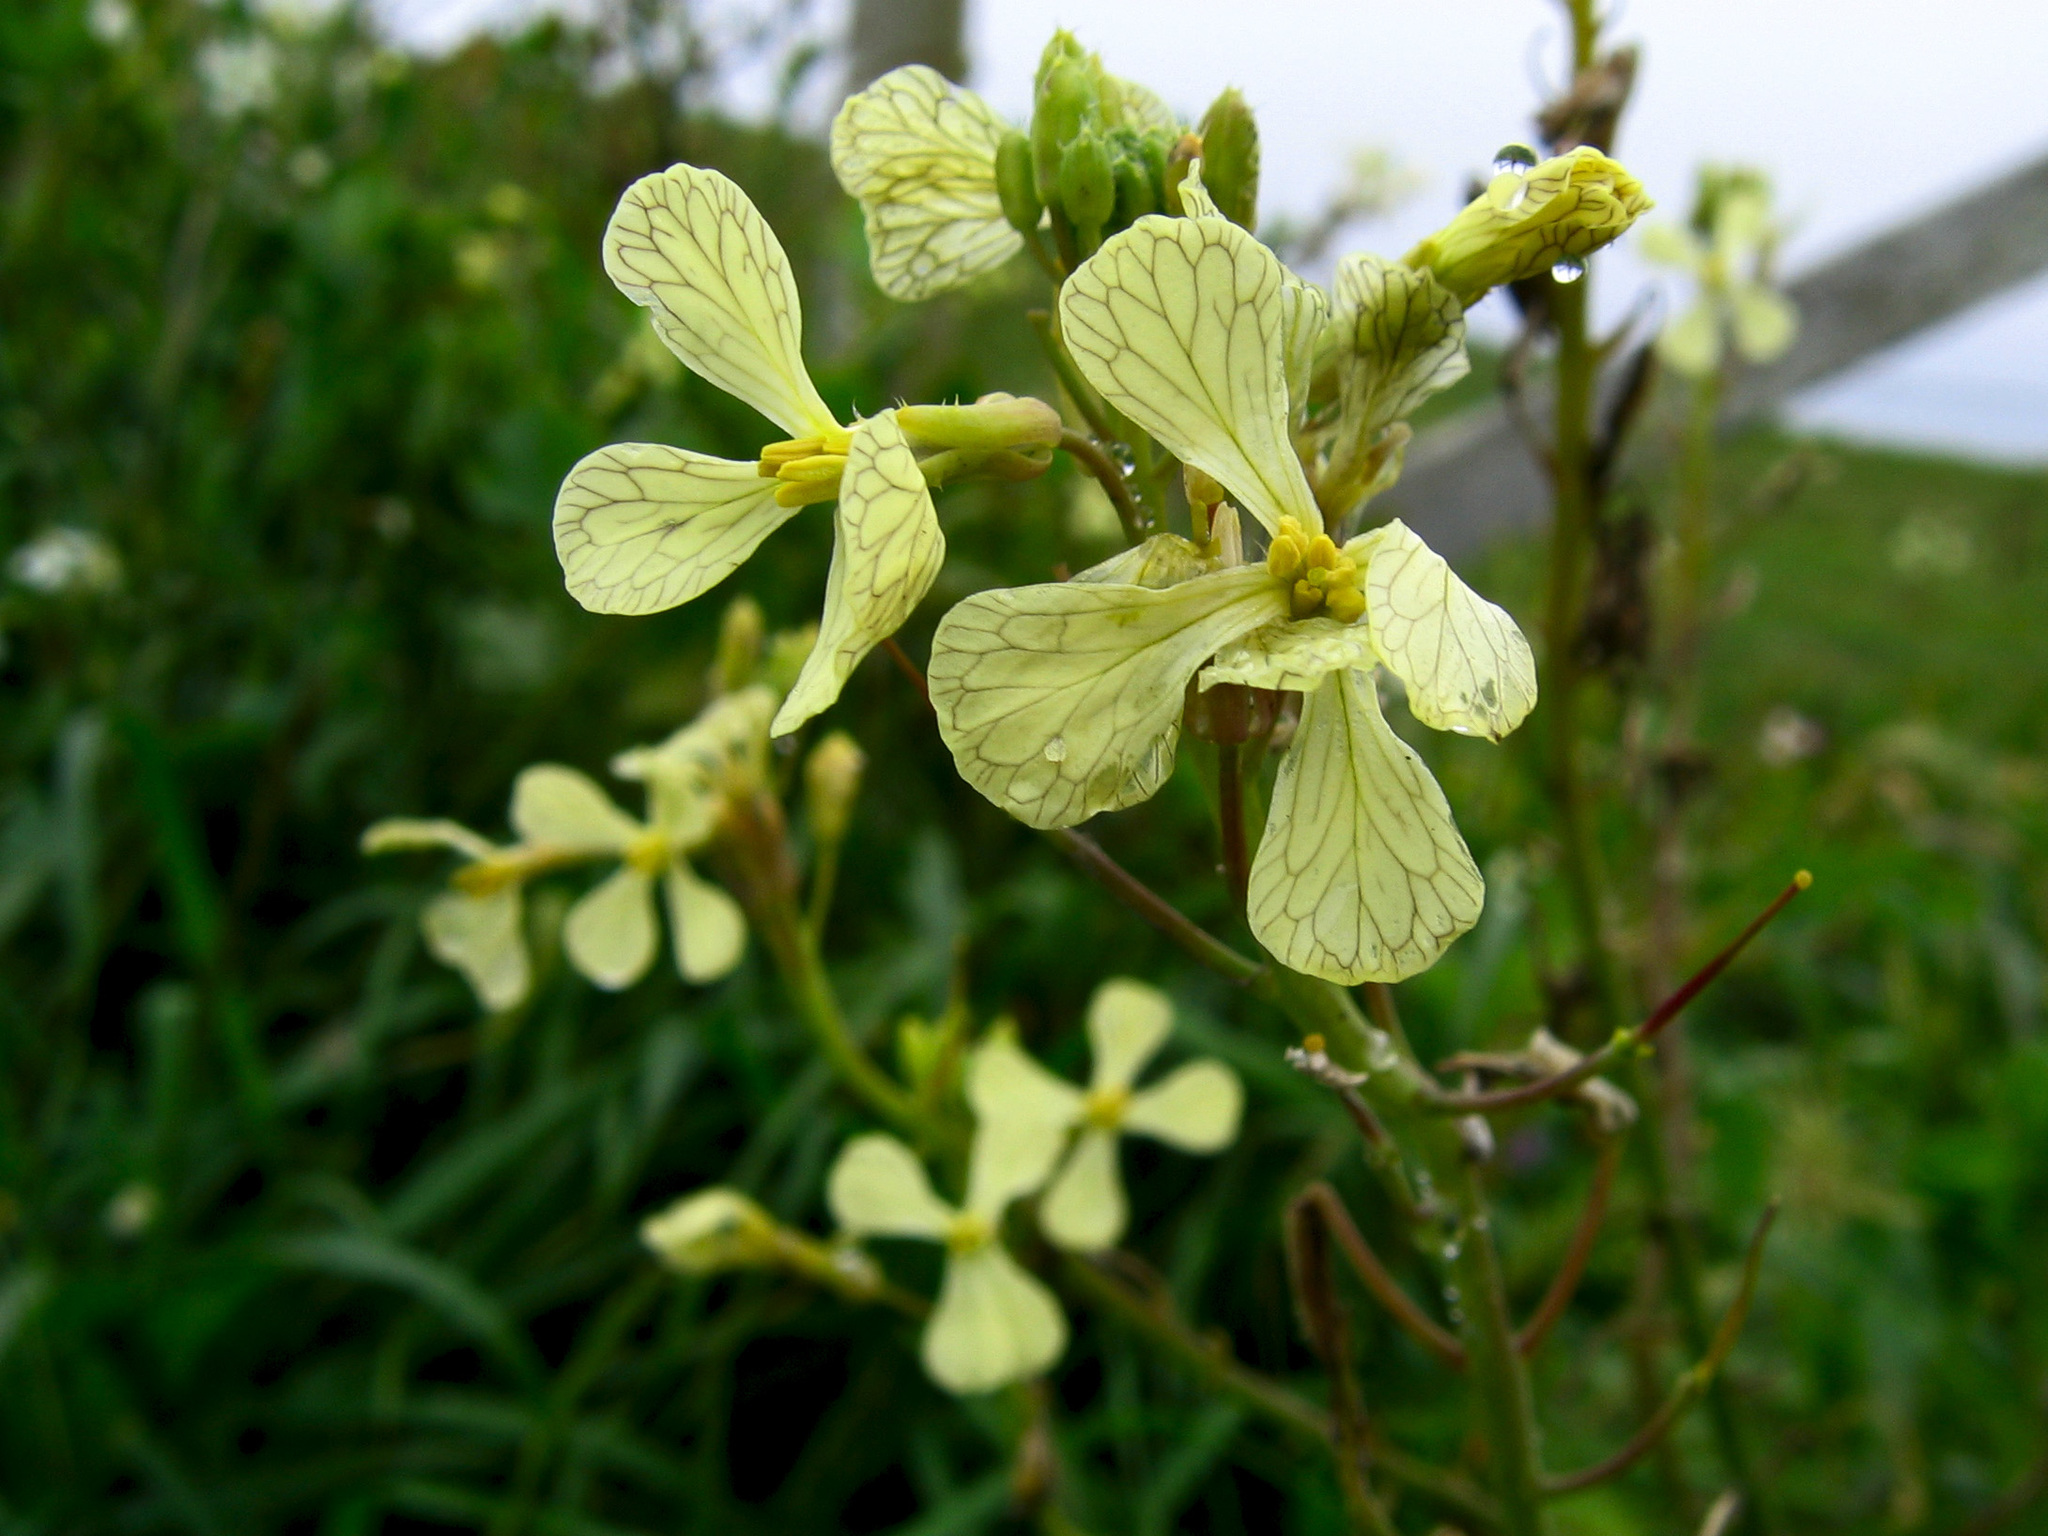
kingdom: Plantae
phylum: Tracheophyta
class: Magnoliopsida
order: Brassicales
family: Brassicaceae
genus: Raphanus
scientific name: Raphanus raphanistrum
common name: Wild radish
